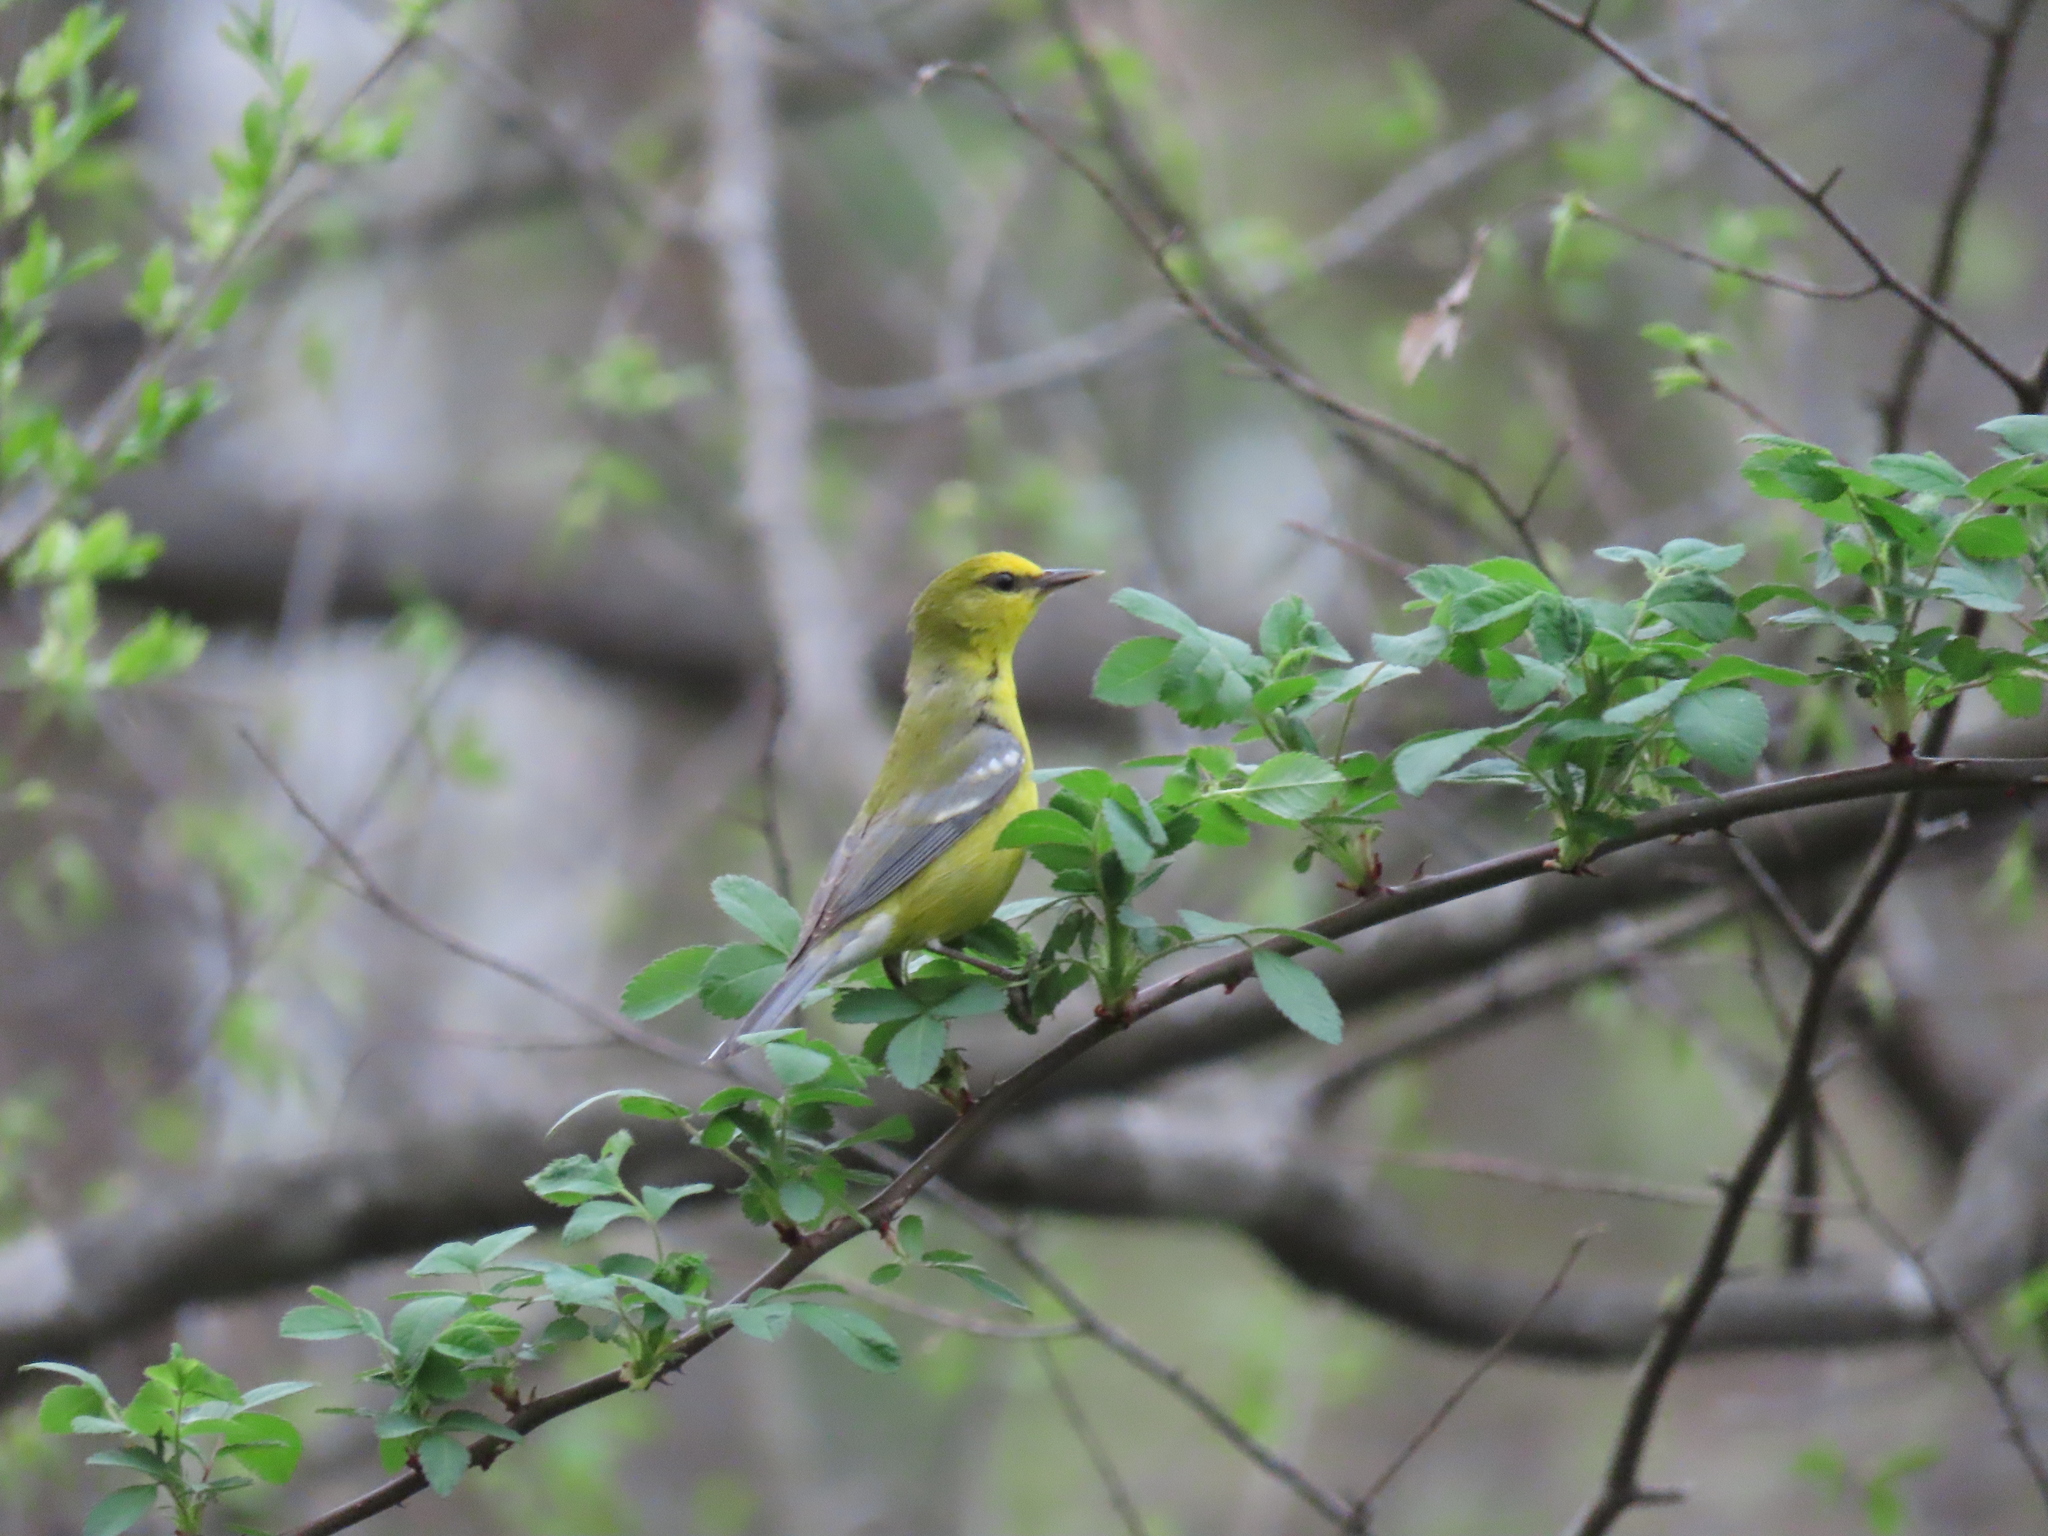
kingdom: Animalia
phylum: Chordata
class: Aves
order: Passeriformes
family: Parulidae
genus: Vermivora
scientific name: Vermivora cyanoptera
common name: Blue-winged warbler
